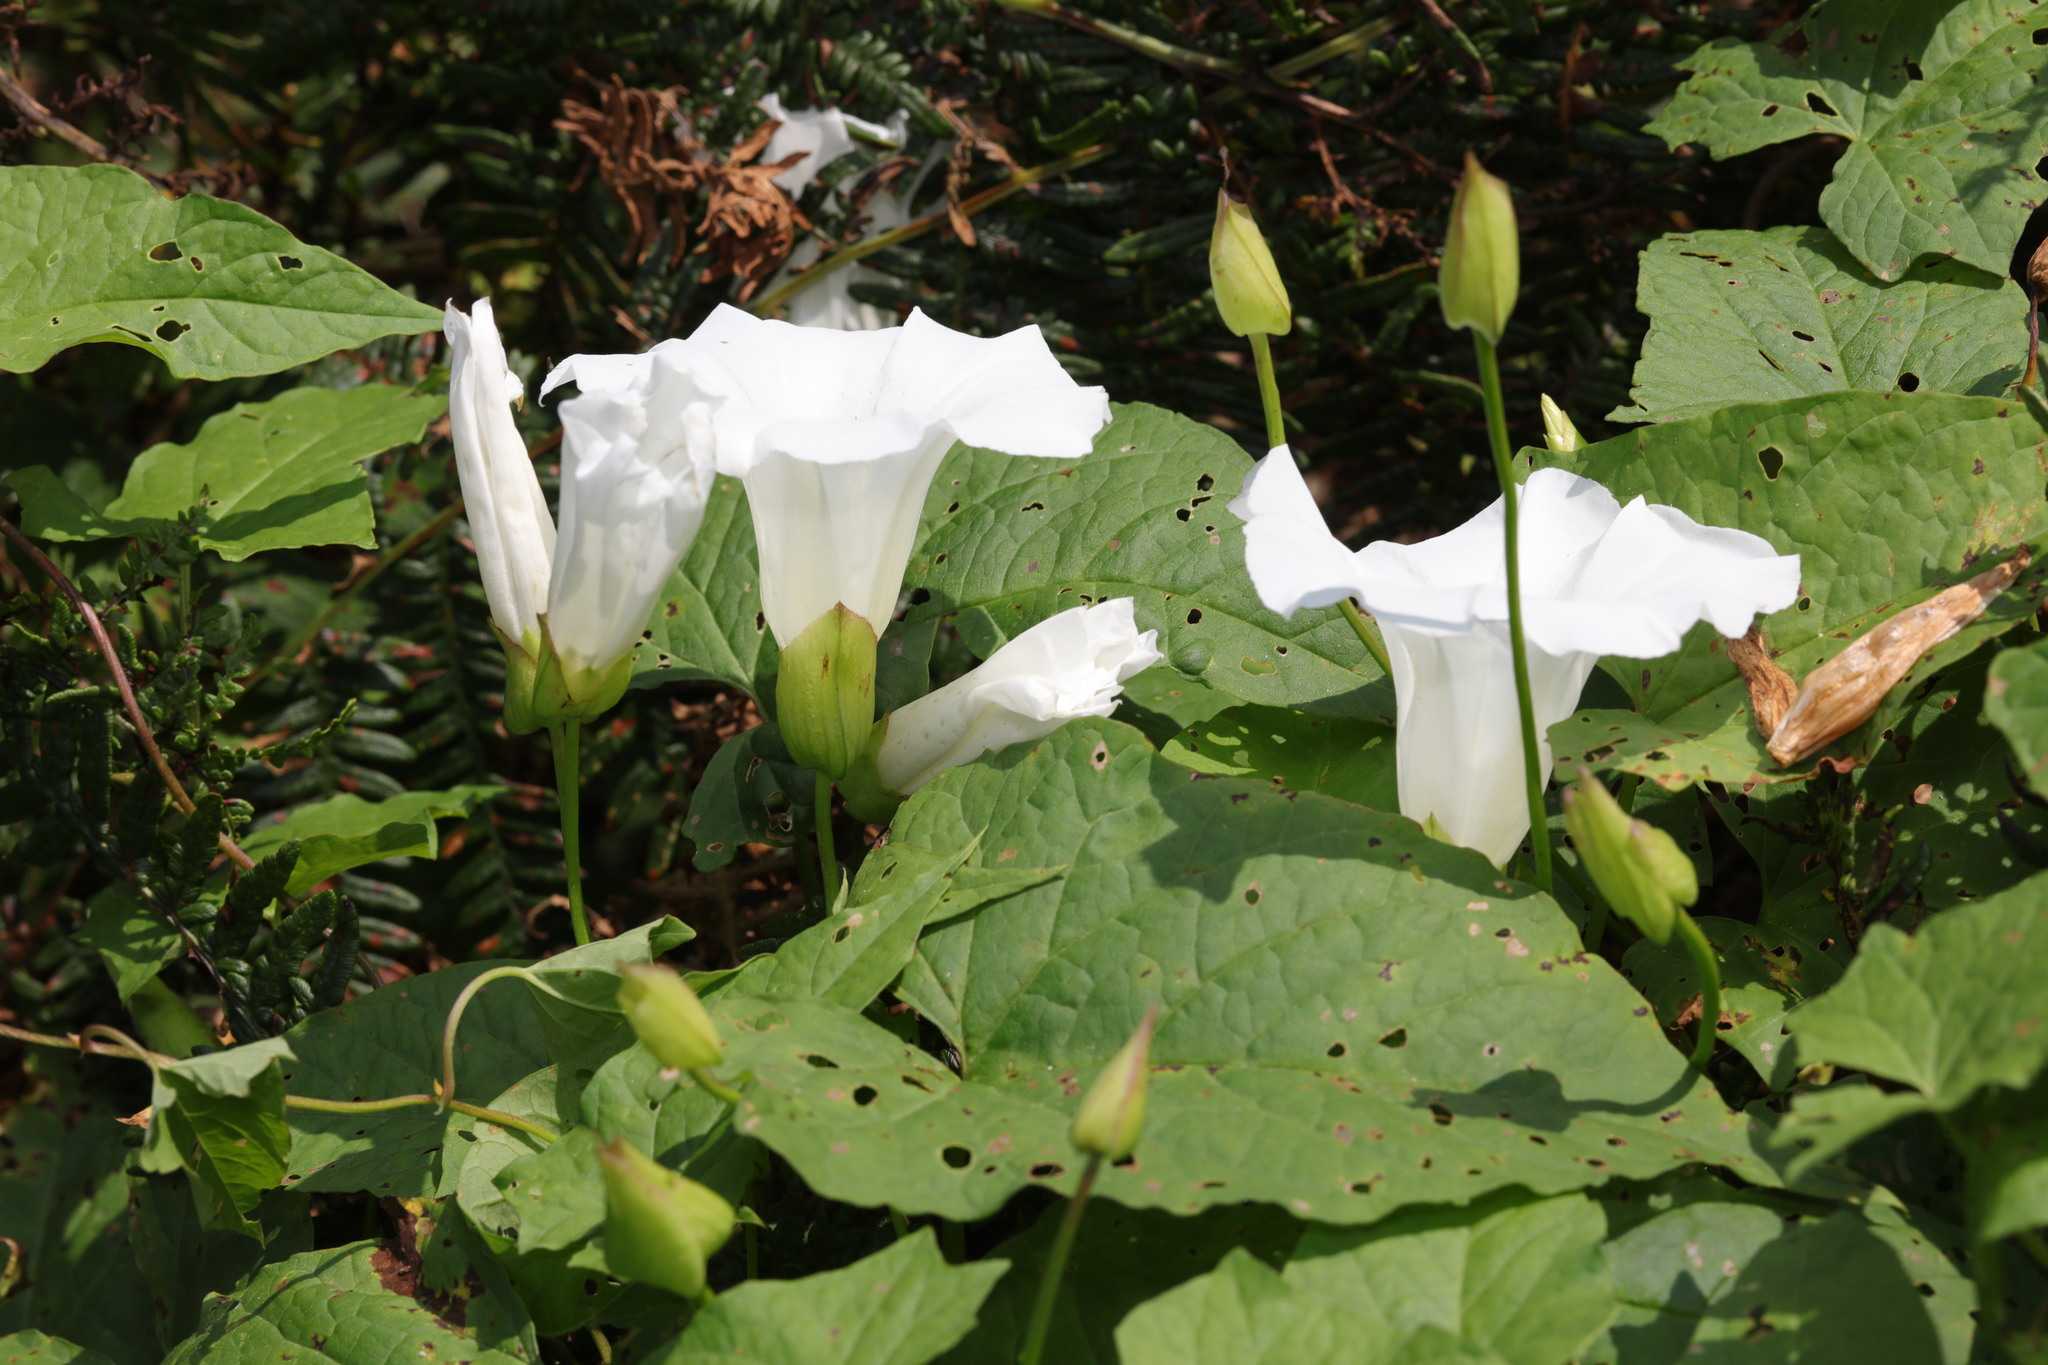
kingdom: Plantae
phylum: Tracheophyta
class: Magnoliopsida
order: Solanales
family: Convolvulaceae
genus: Calystegia
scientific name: Calystegia sepium
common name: Hedge bindweed
